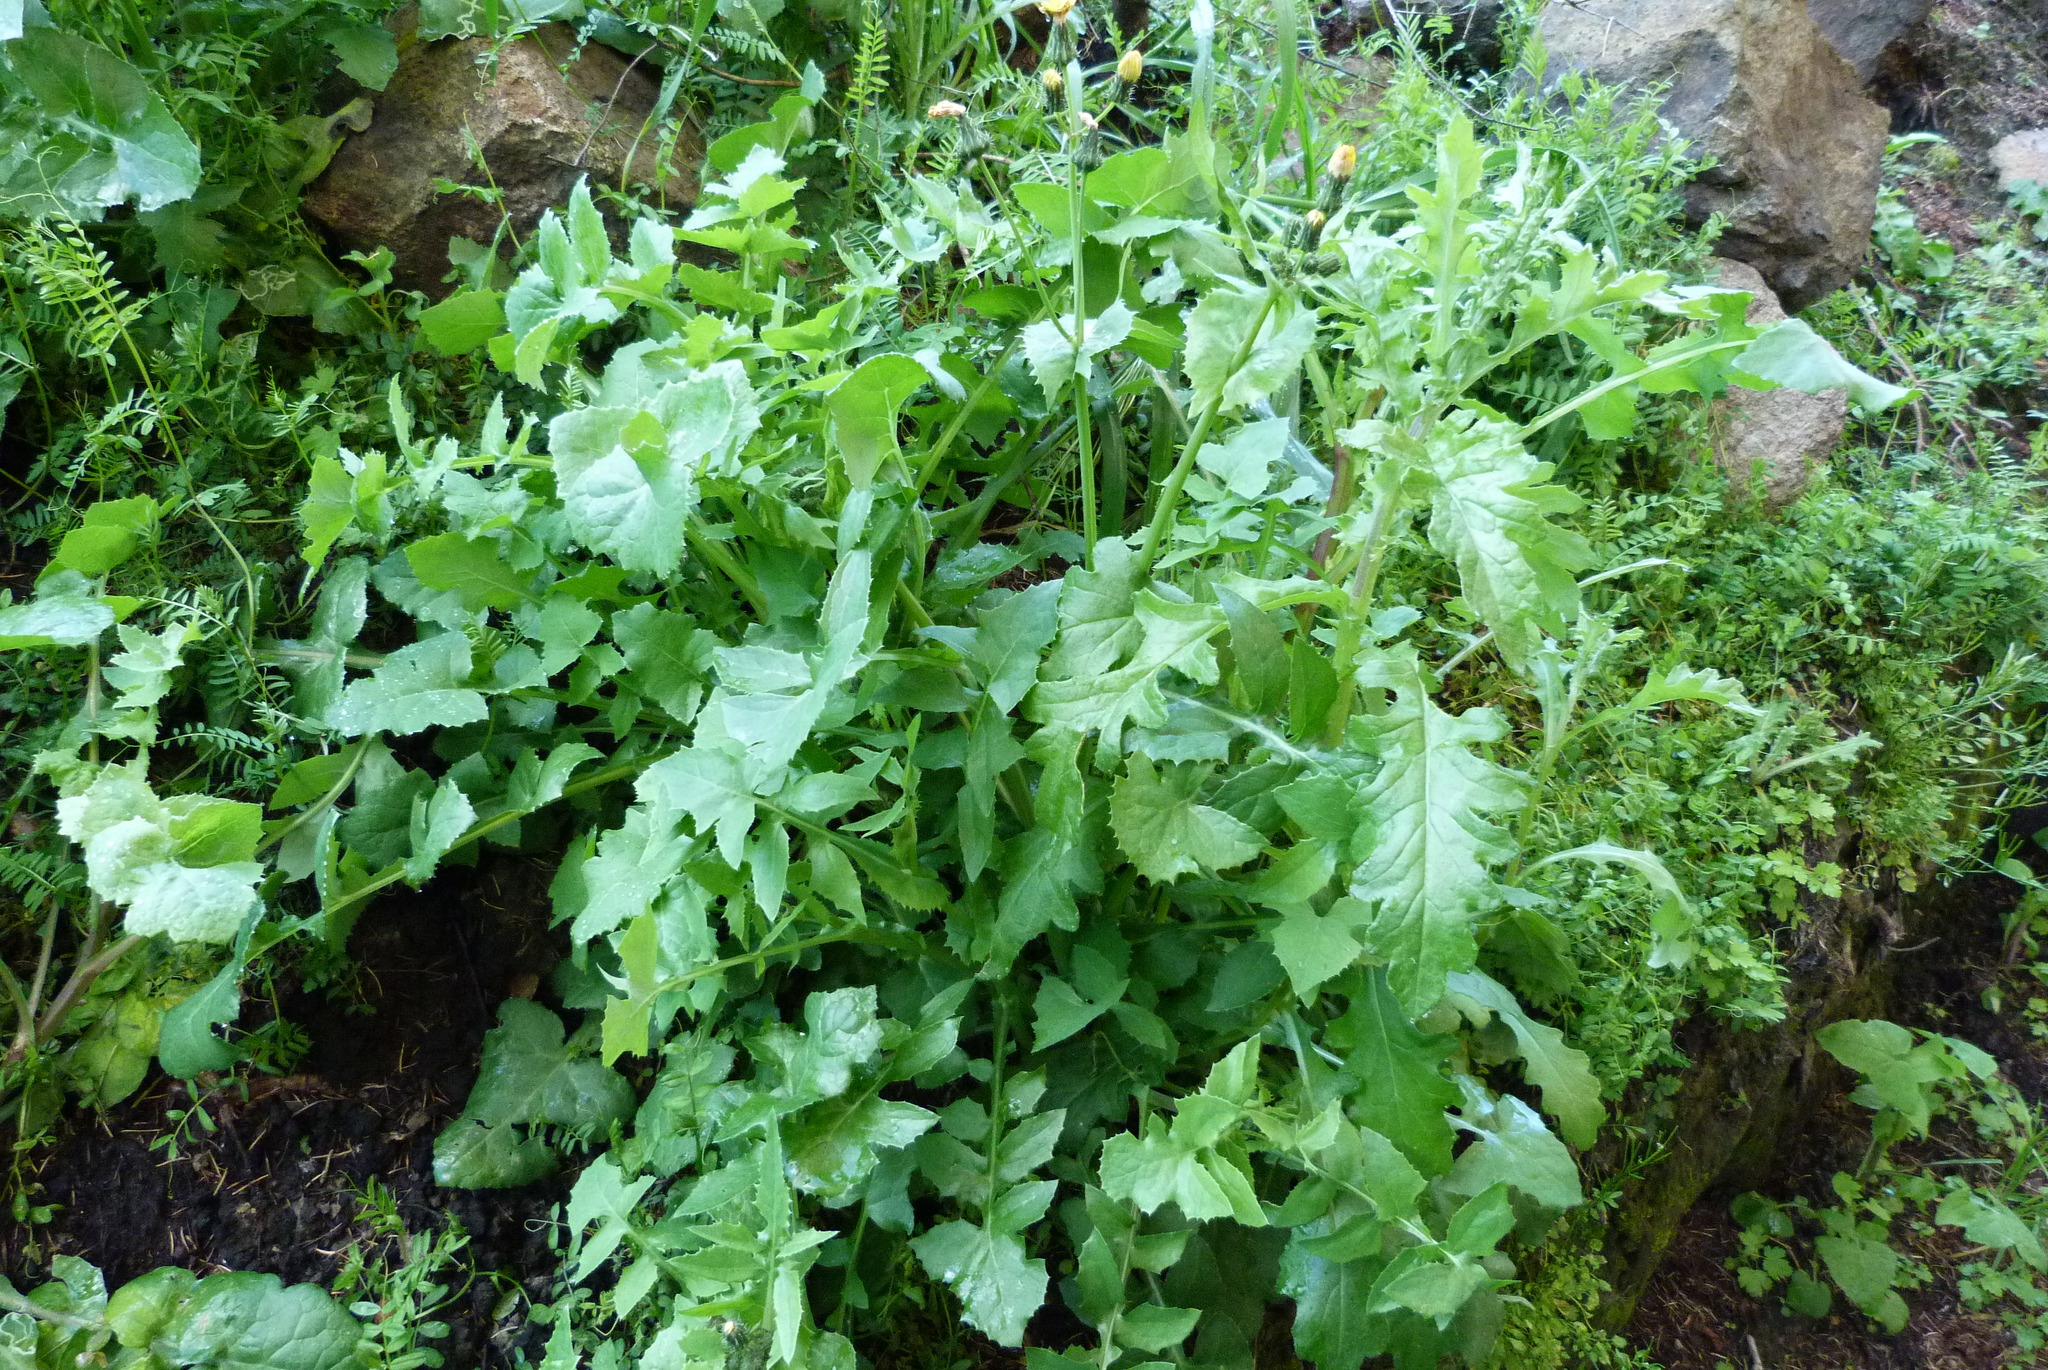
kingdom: Plantae
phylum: Tracheophyta
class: Magnoliopsida
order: Asterales
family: Asteraceae
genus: Sonchus
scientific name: Sonchus oleraceus
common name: Common sowthistle
